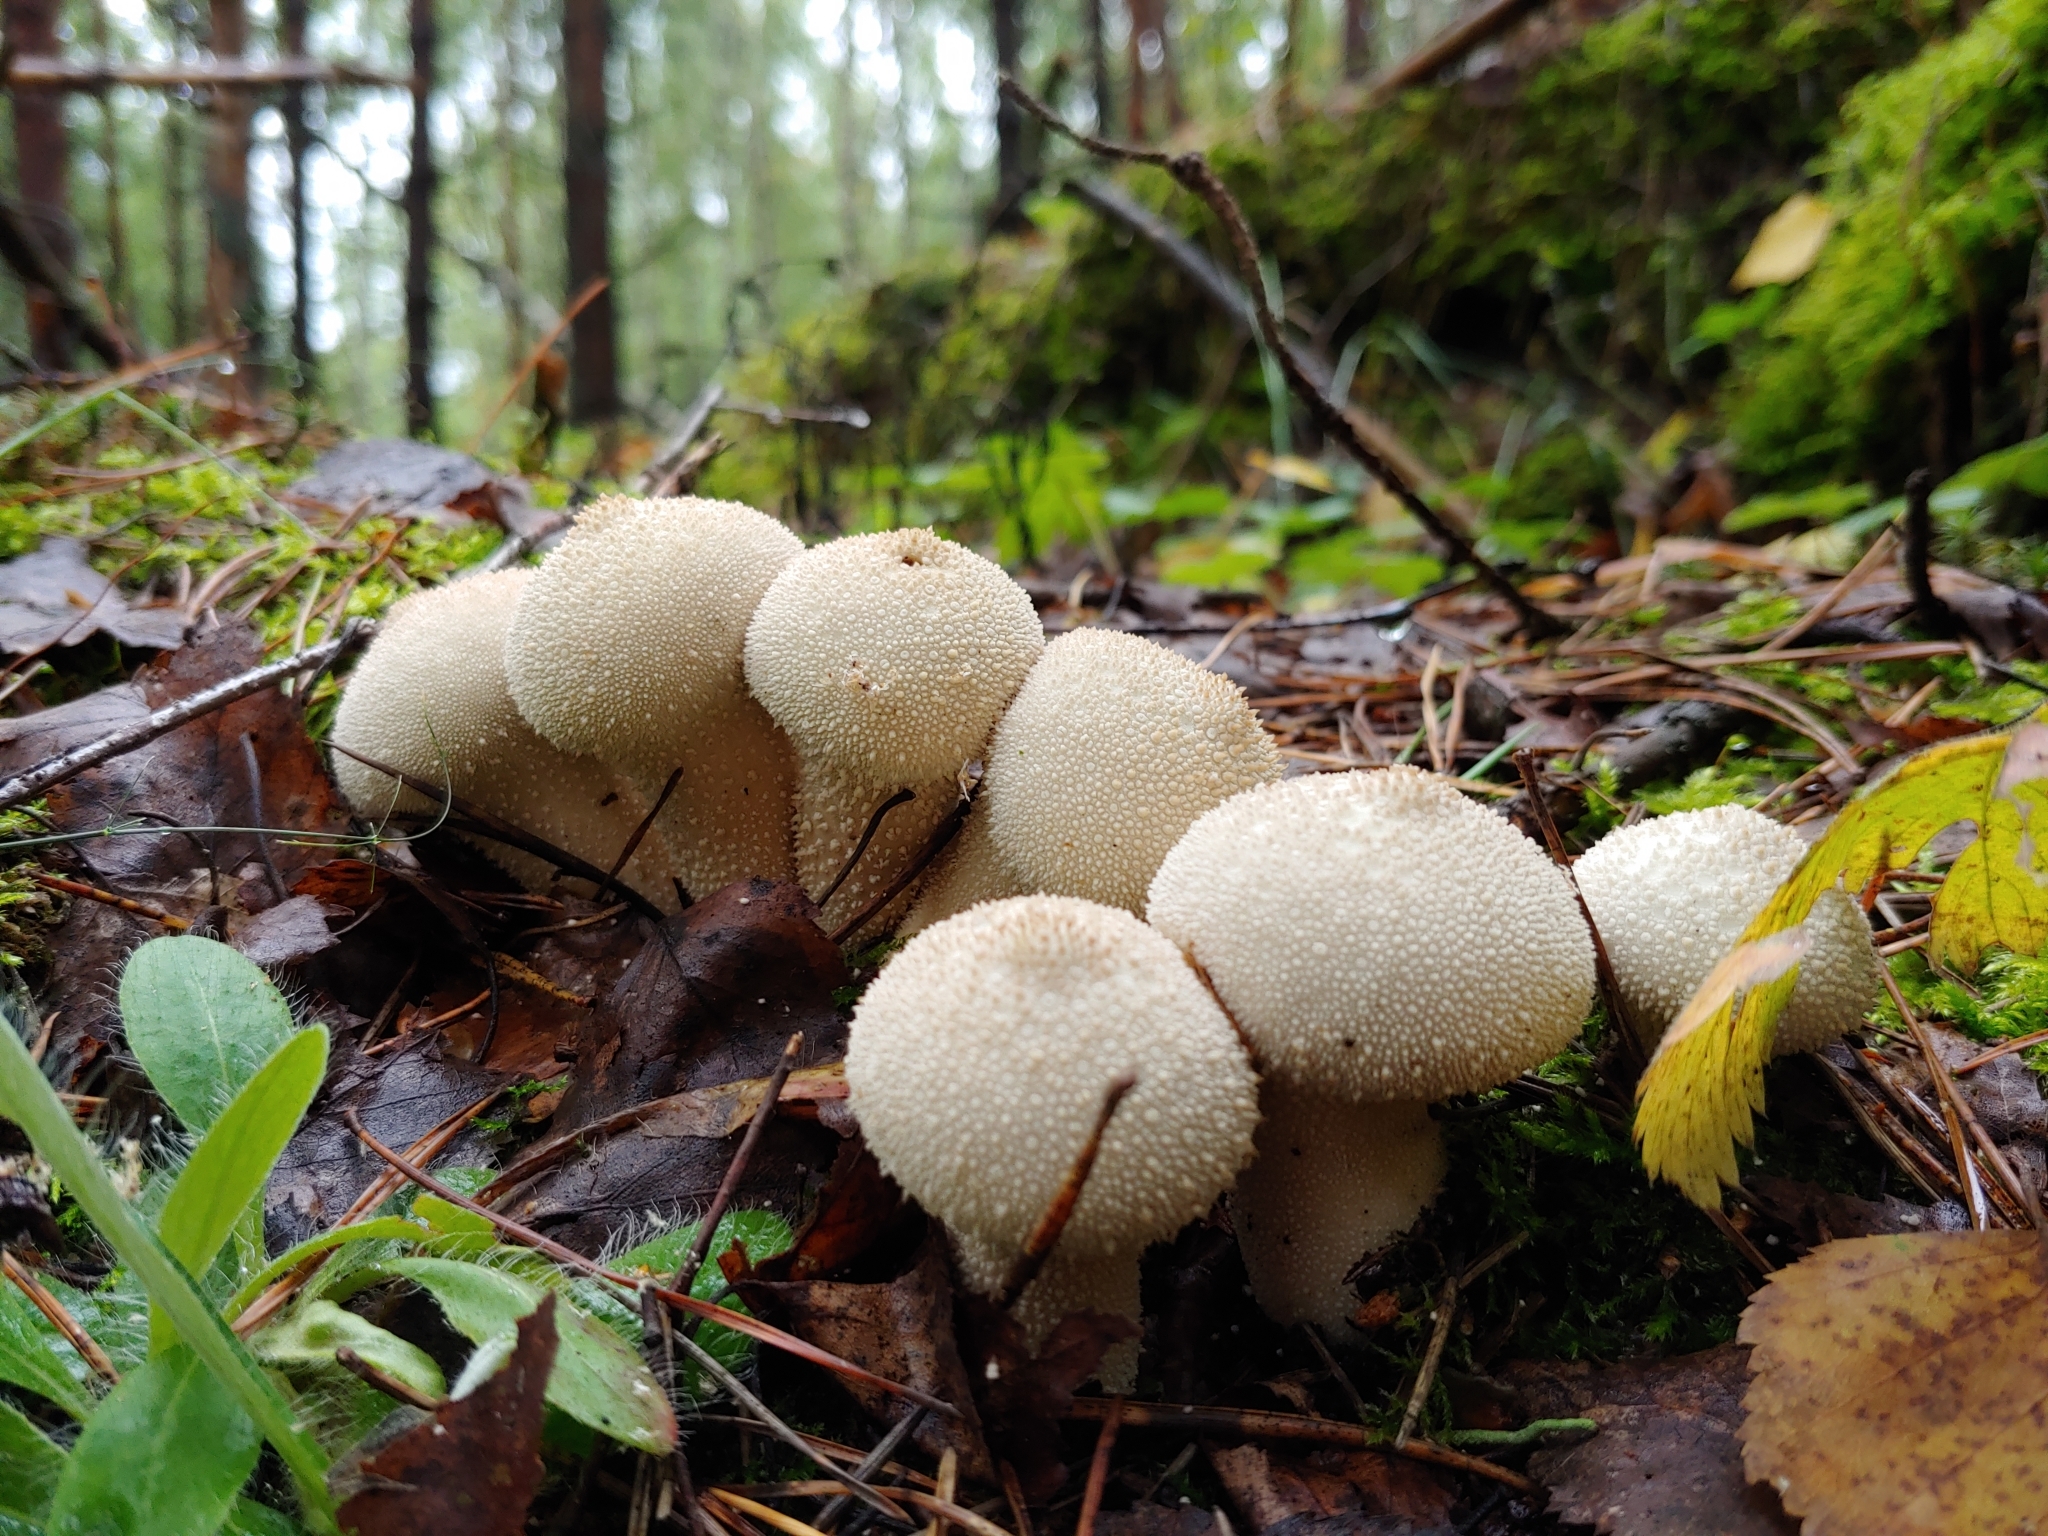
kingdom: Fungi
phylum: Basidiomycota
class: Agaricomycetes
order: Agaricales
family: Lycoperdaceae
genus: Lycoperdon
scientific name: Lycoperdon perlatum
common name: Common puffball
